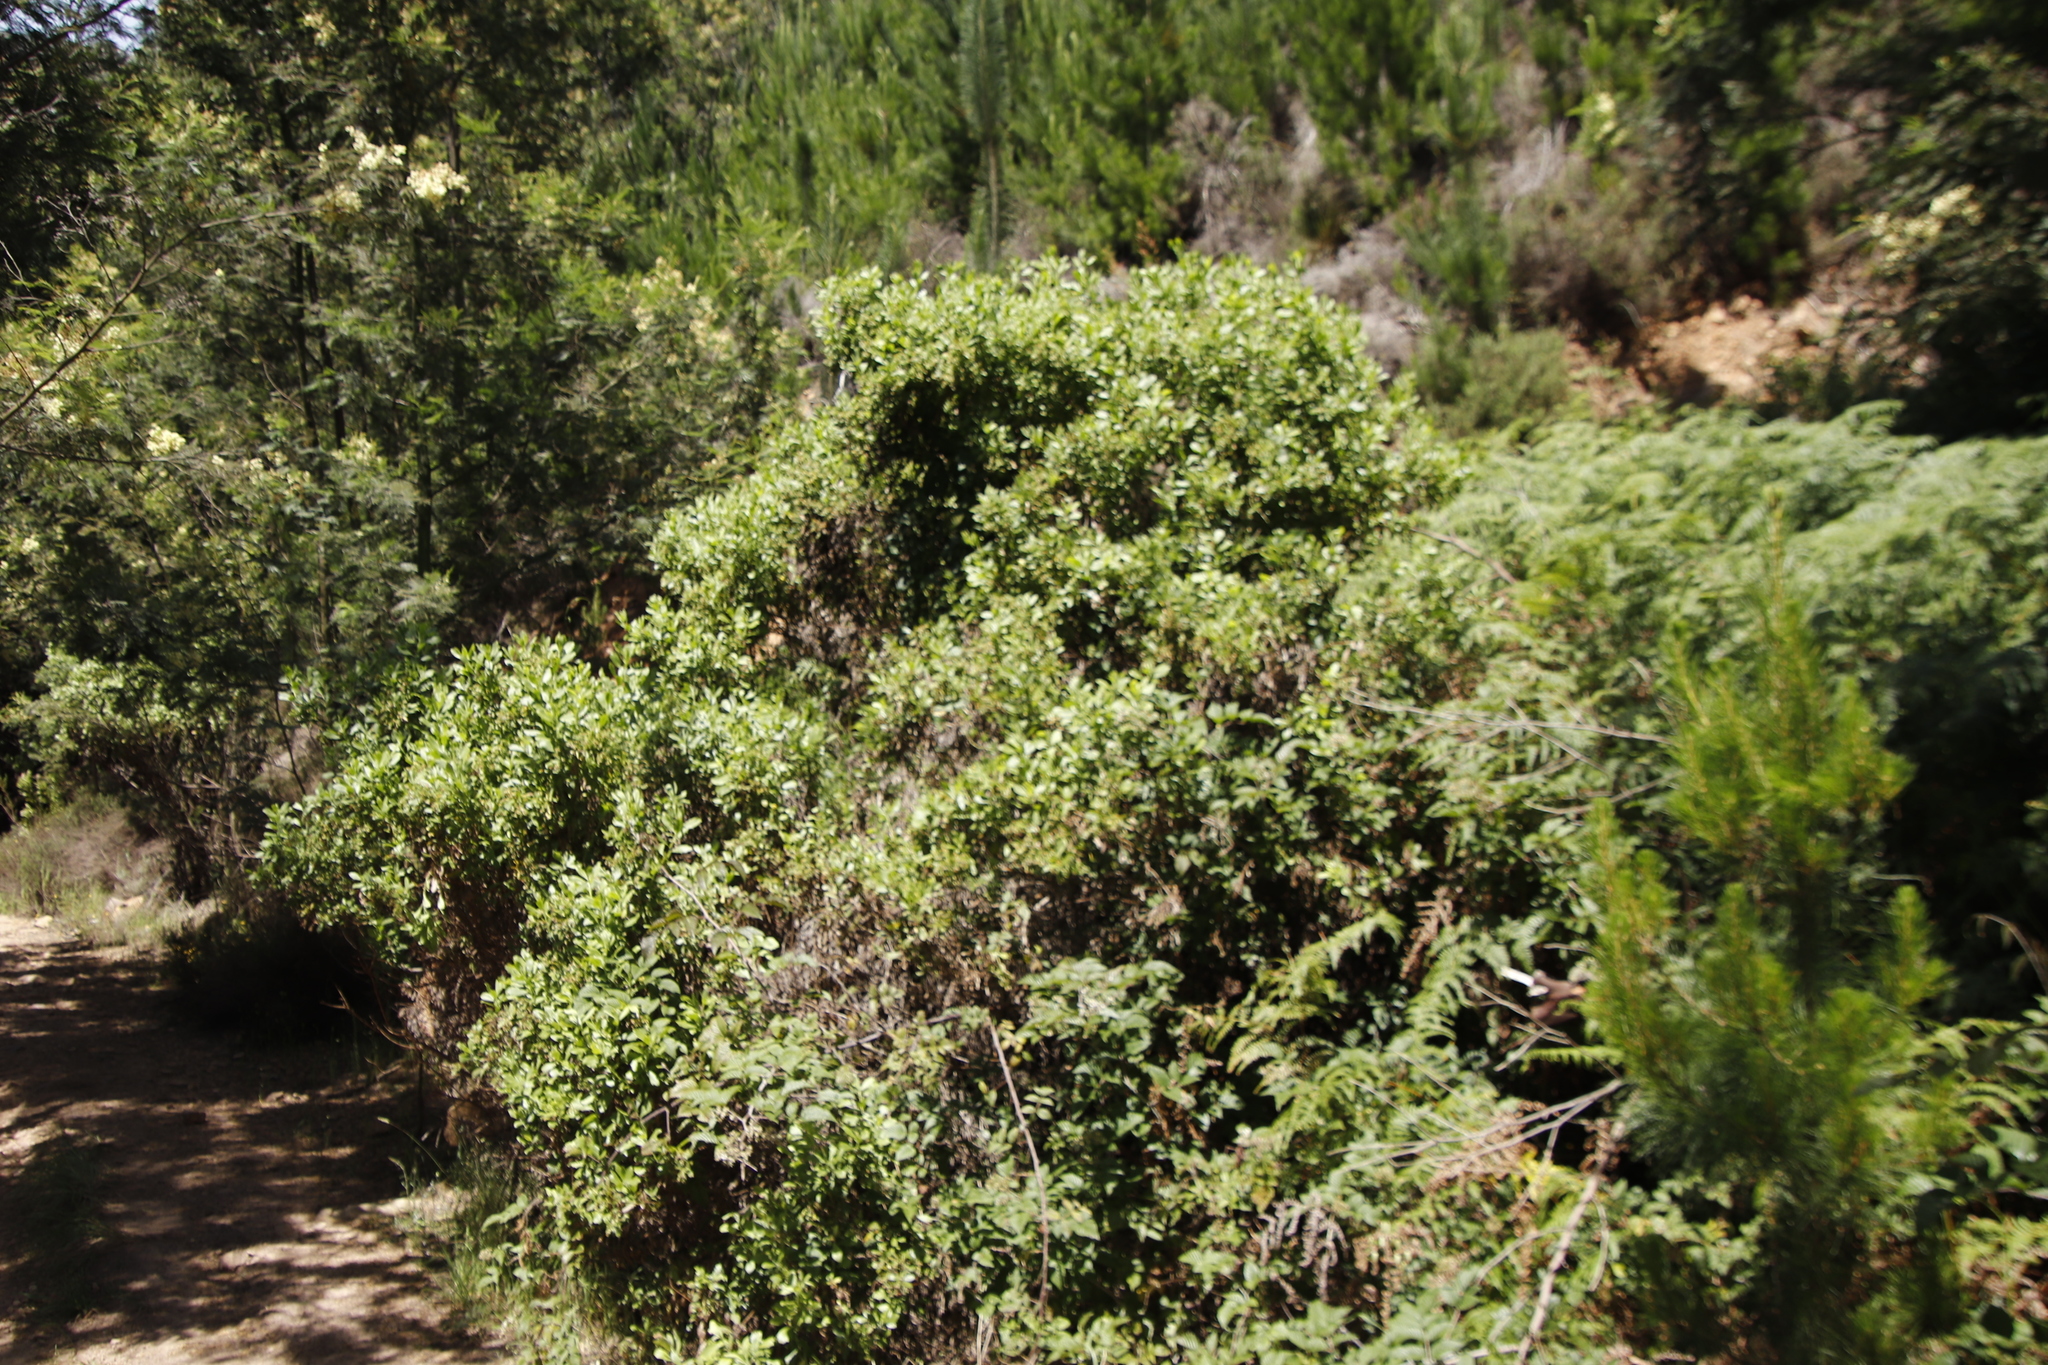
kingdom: Plantae
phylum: Tracheophyta
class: Magnoliopsida
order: Asterales
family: Asteraceae
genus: Osteospermum
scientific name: Osteospermum moniliferum
